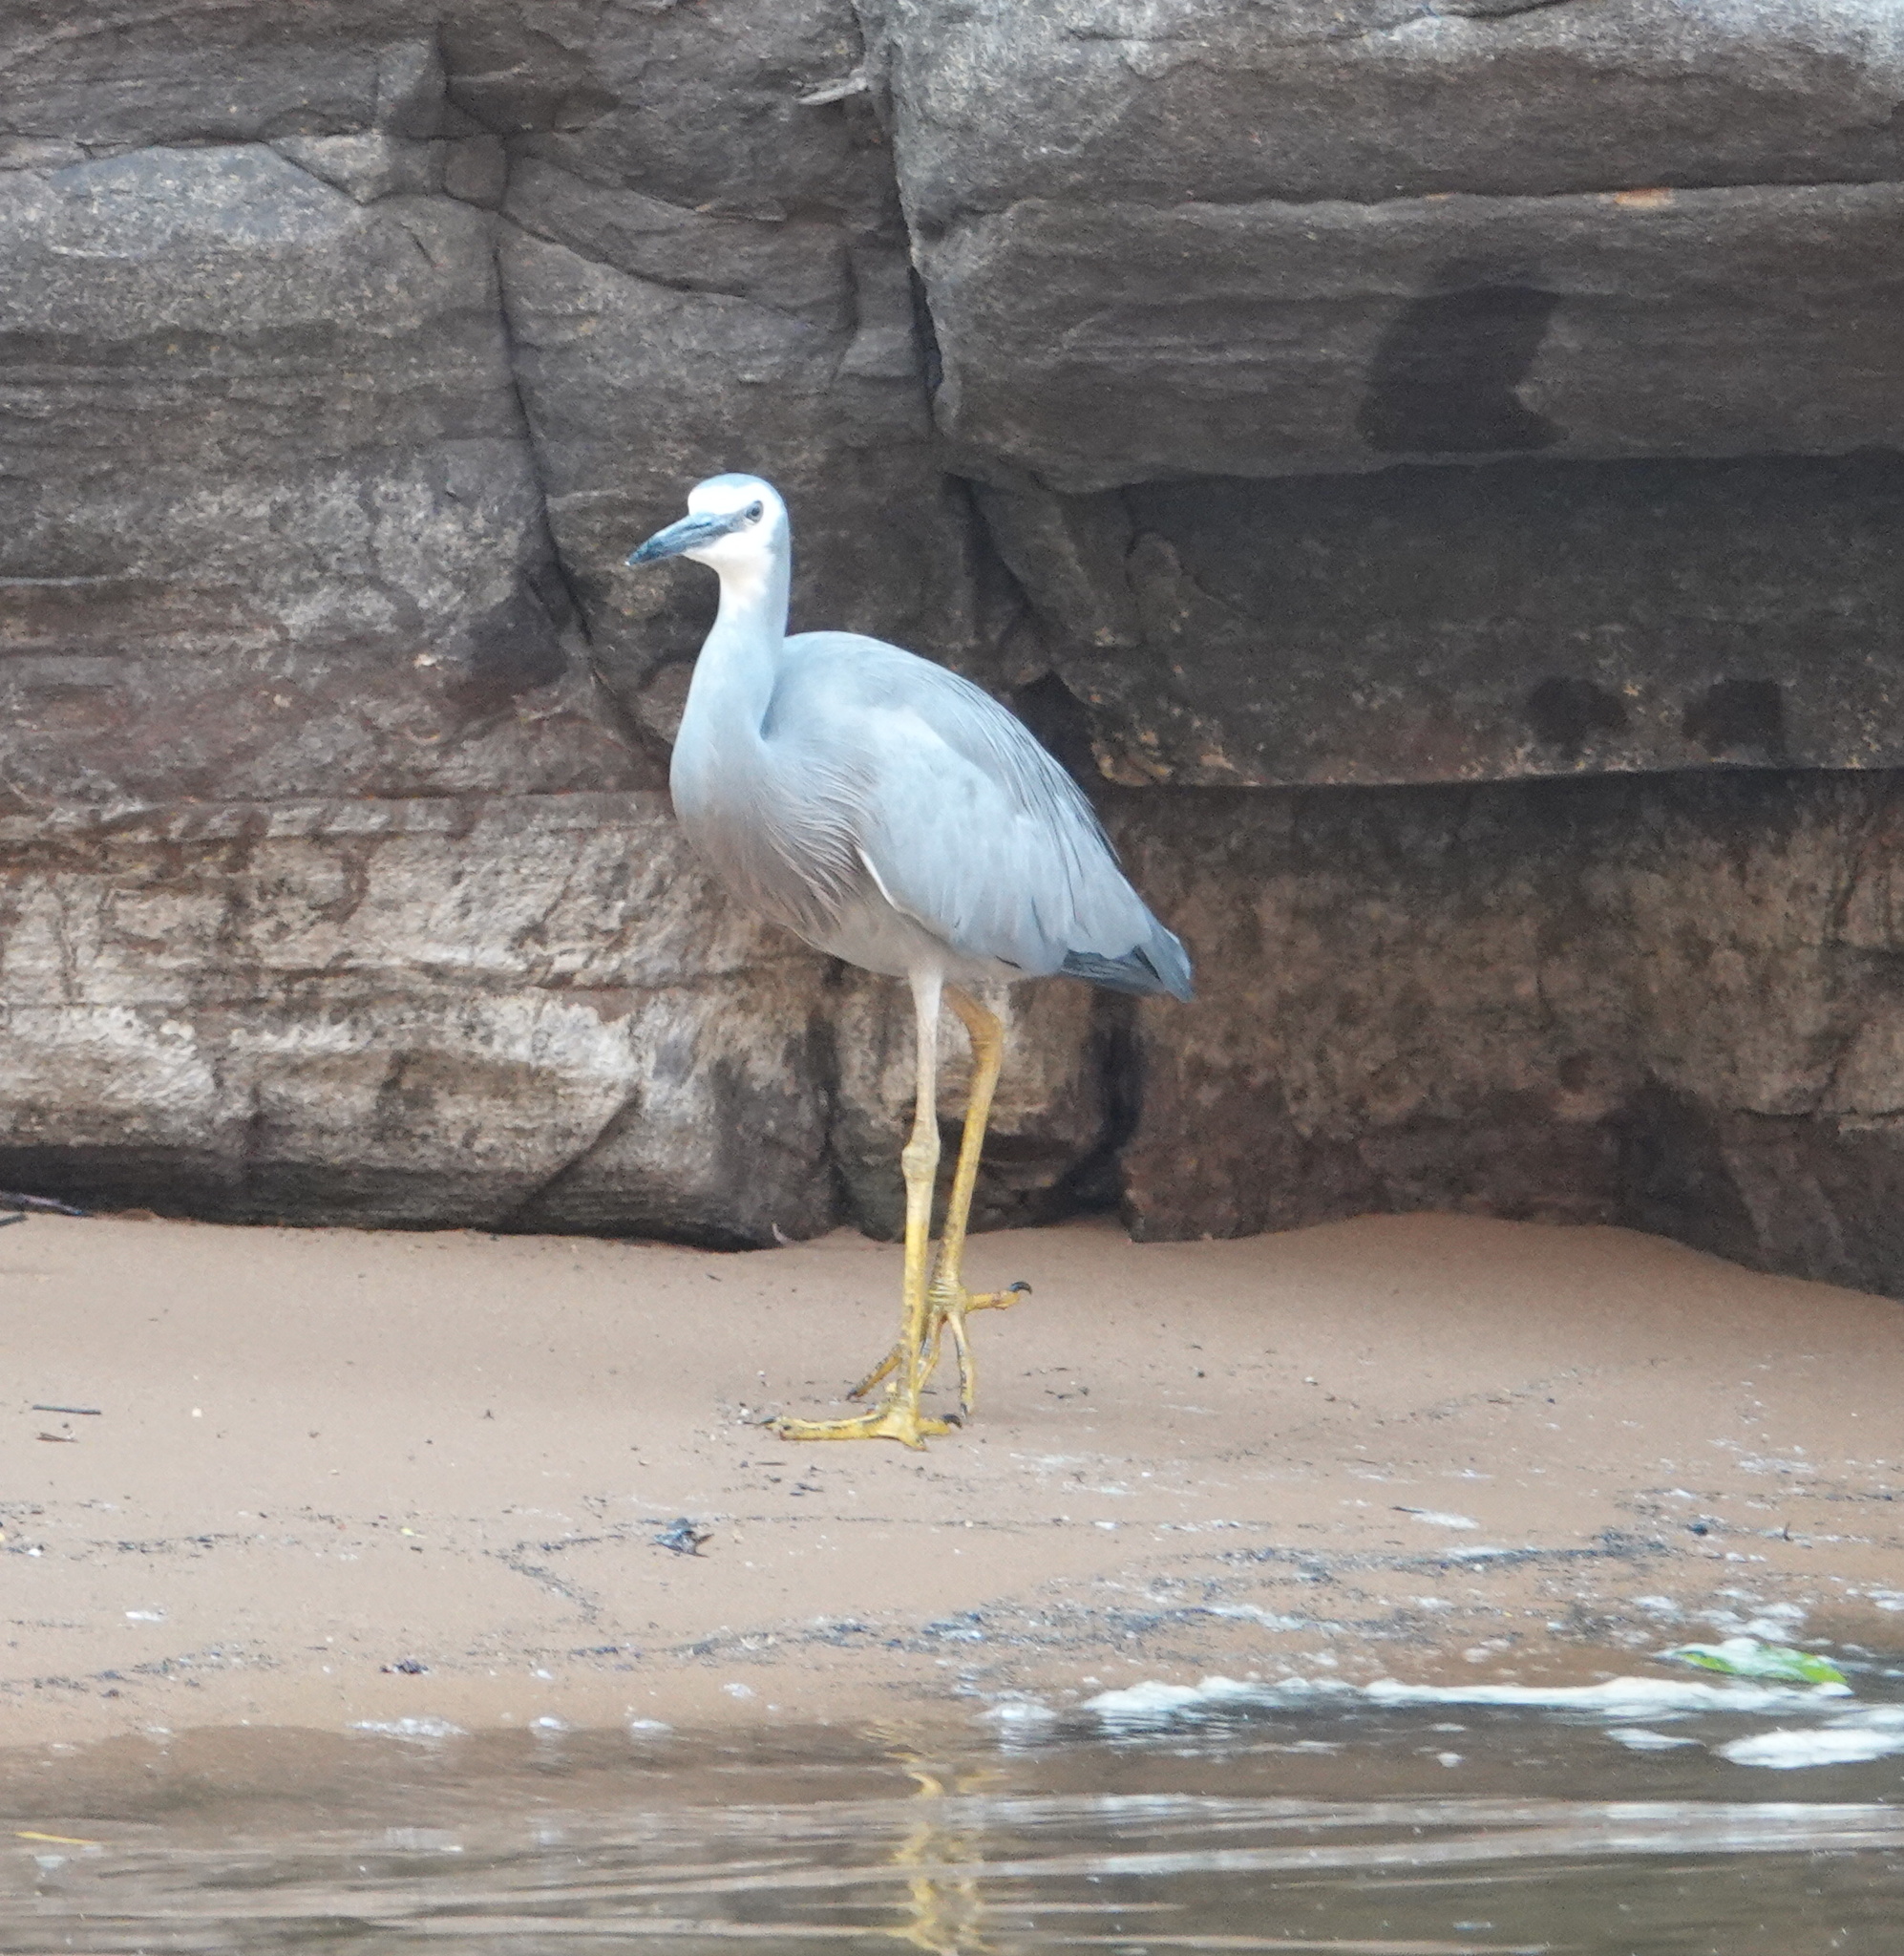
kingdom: Animalia
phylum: Chordata
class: Aves
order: Pelecaniformes
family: Ardeidae
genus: Egretta
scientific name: Egretta novaehollandiae
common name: White-faced heron
